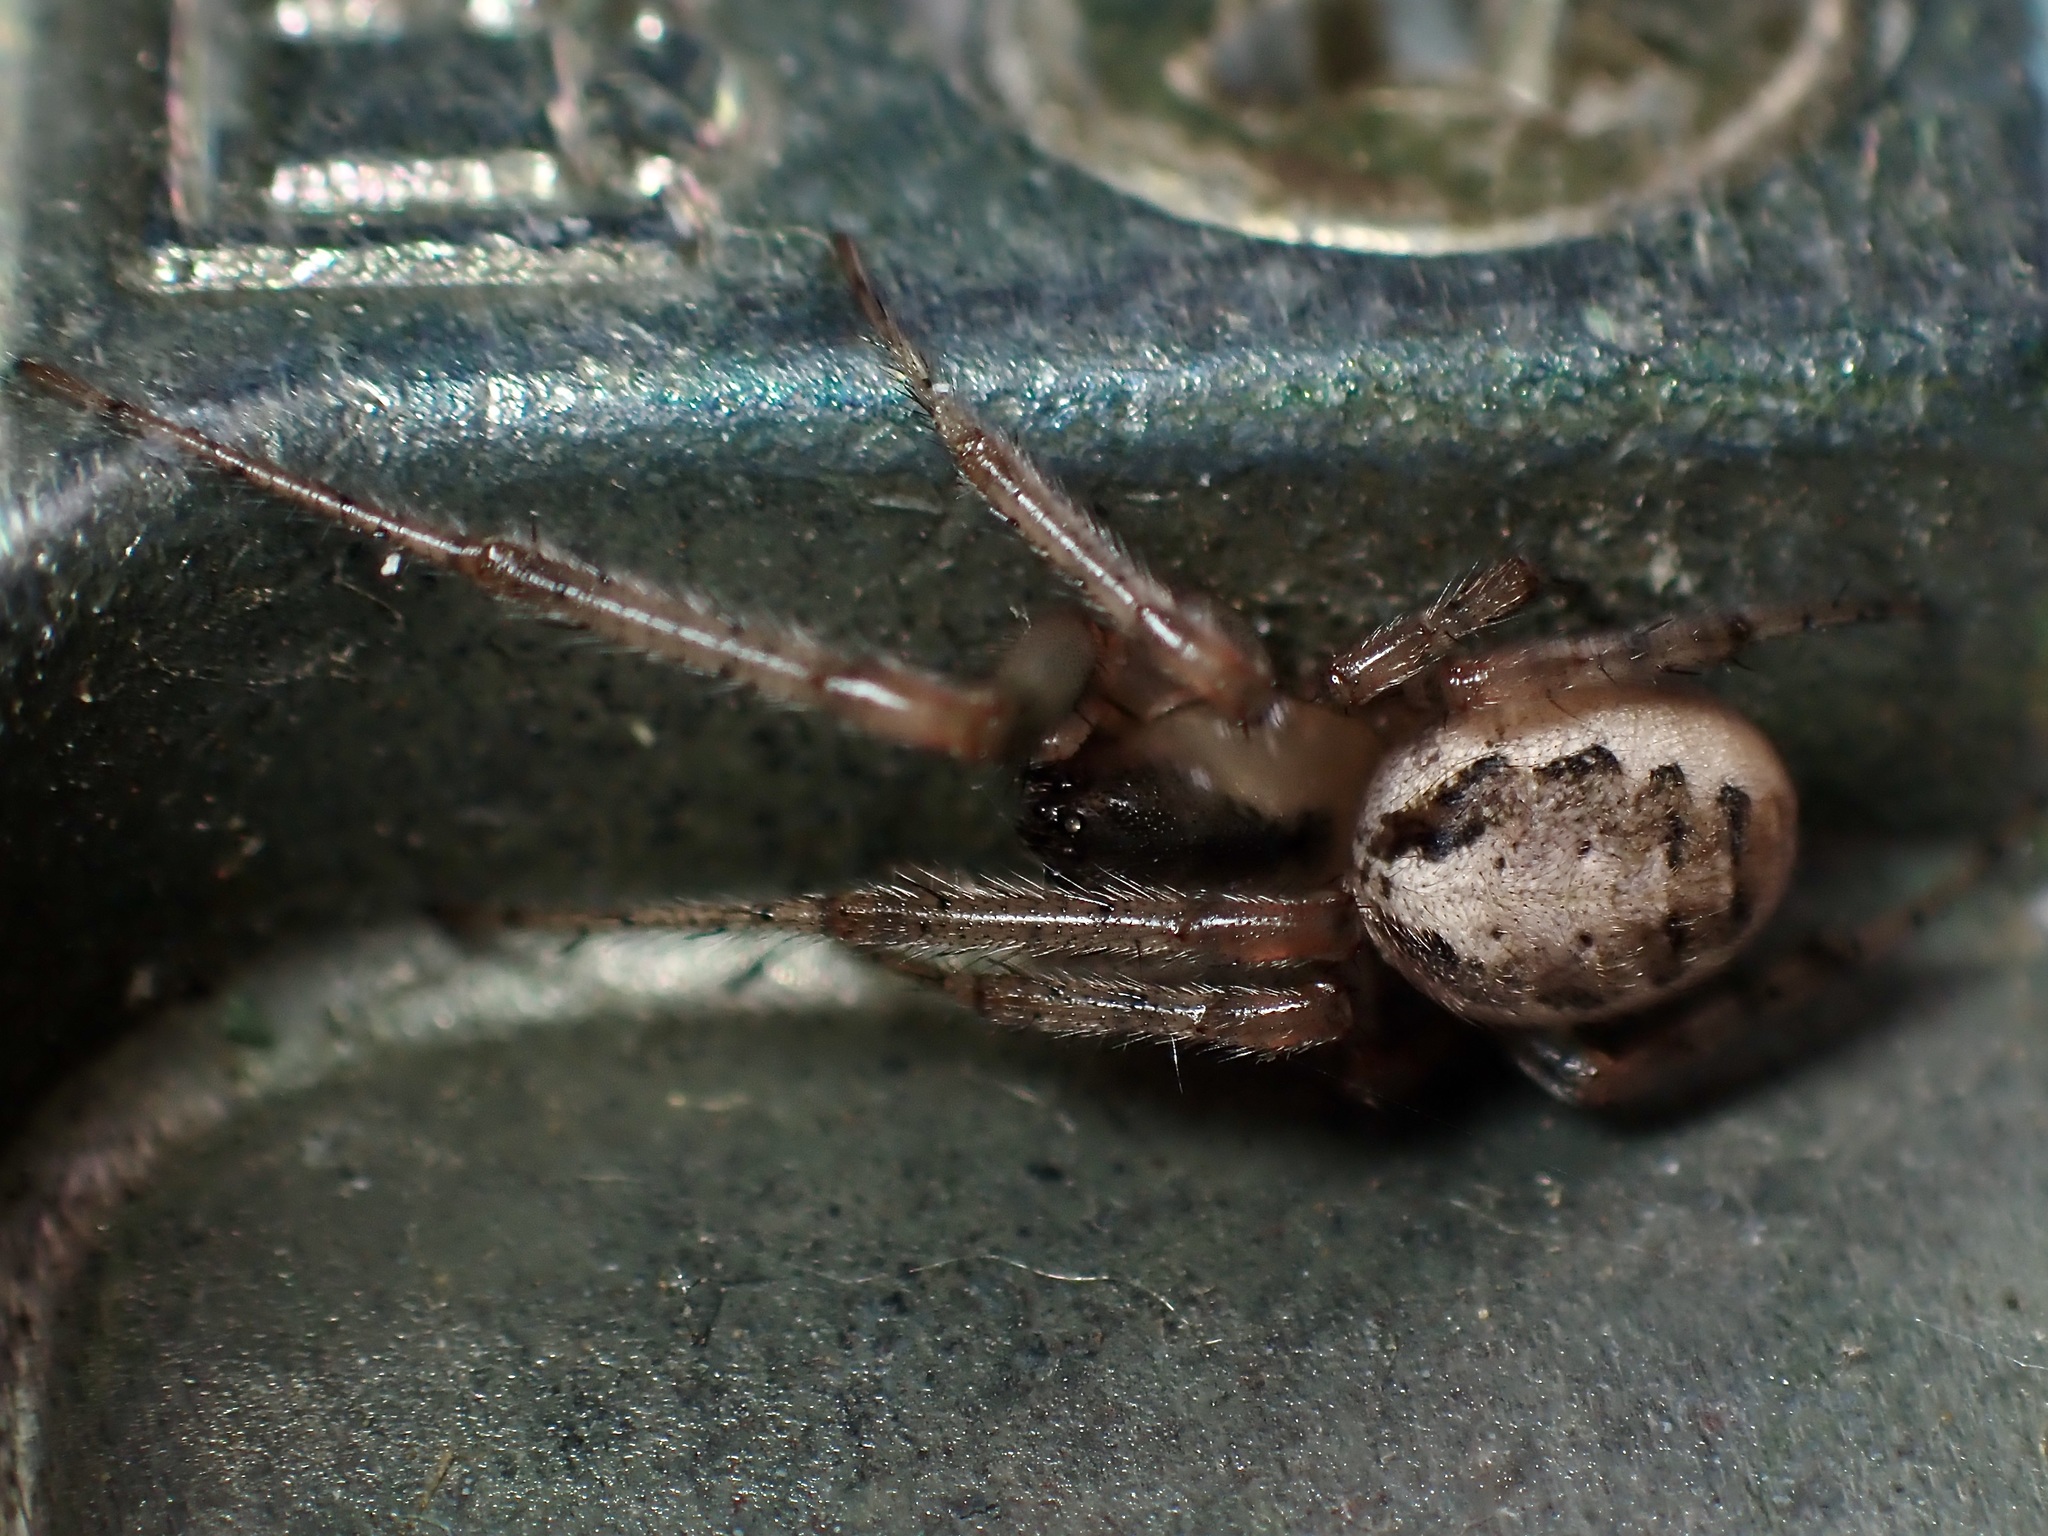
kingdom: Animalia
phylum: Arthropoda
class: Arachnida
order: Araneae
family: Araneidae
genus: Zygiella
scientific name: Zygiella x-notata
